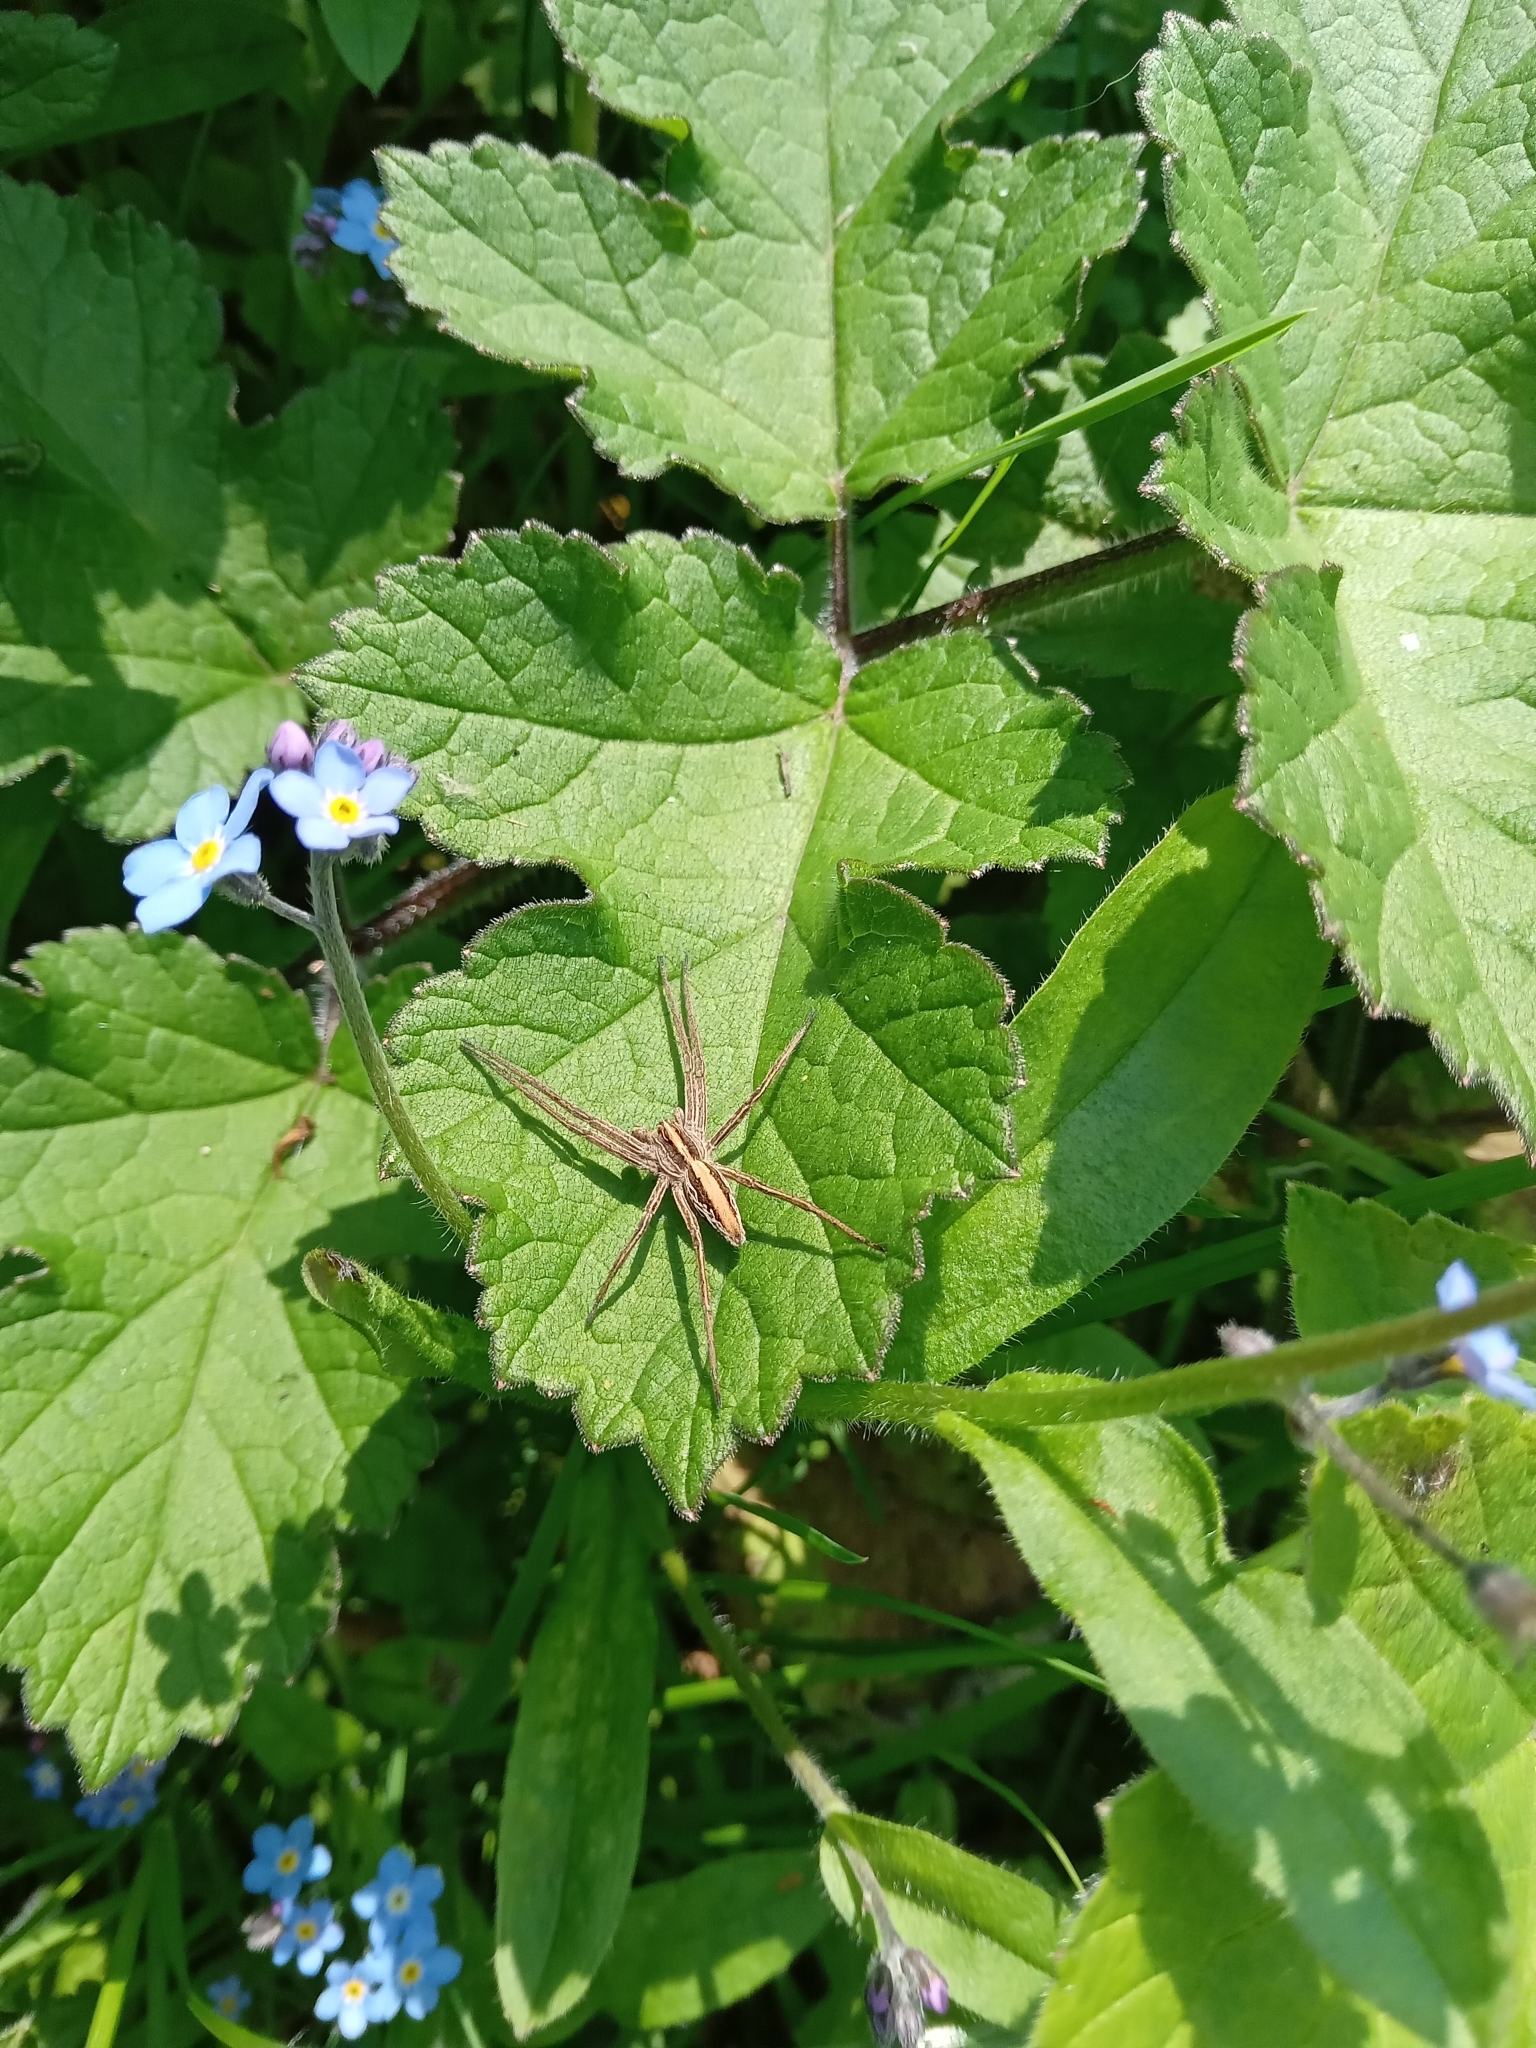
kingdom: Animalia
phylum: Arthropoda
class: Arachnida
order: Araneae
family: Pisauridae
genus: Pisaura
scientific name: Pisaura mirabilis
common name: Tent spider
